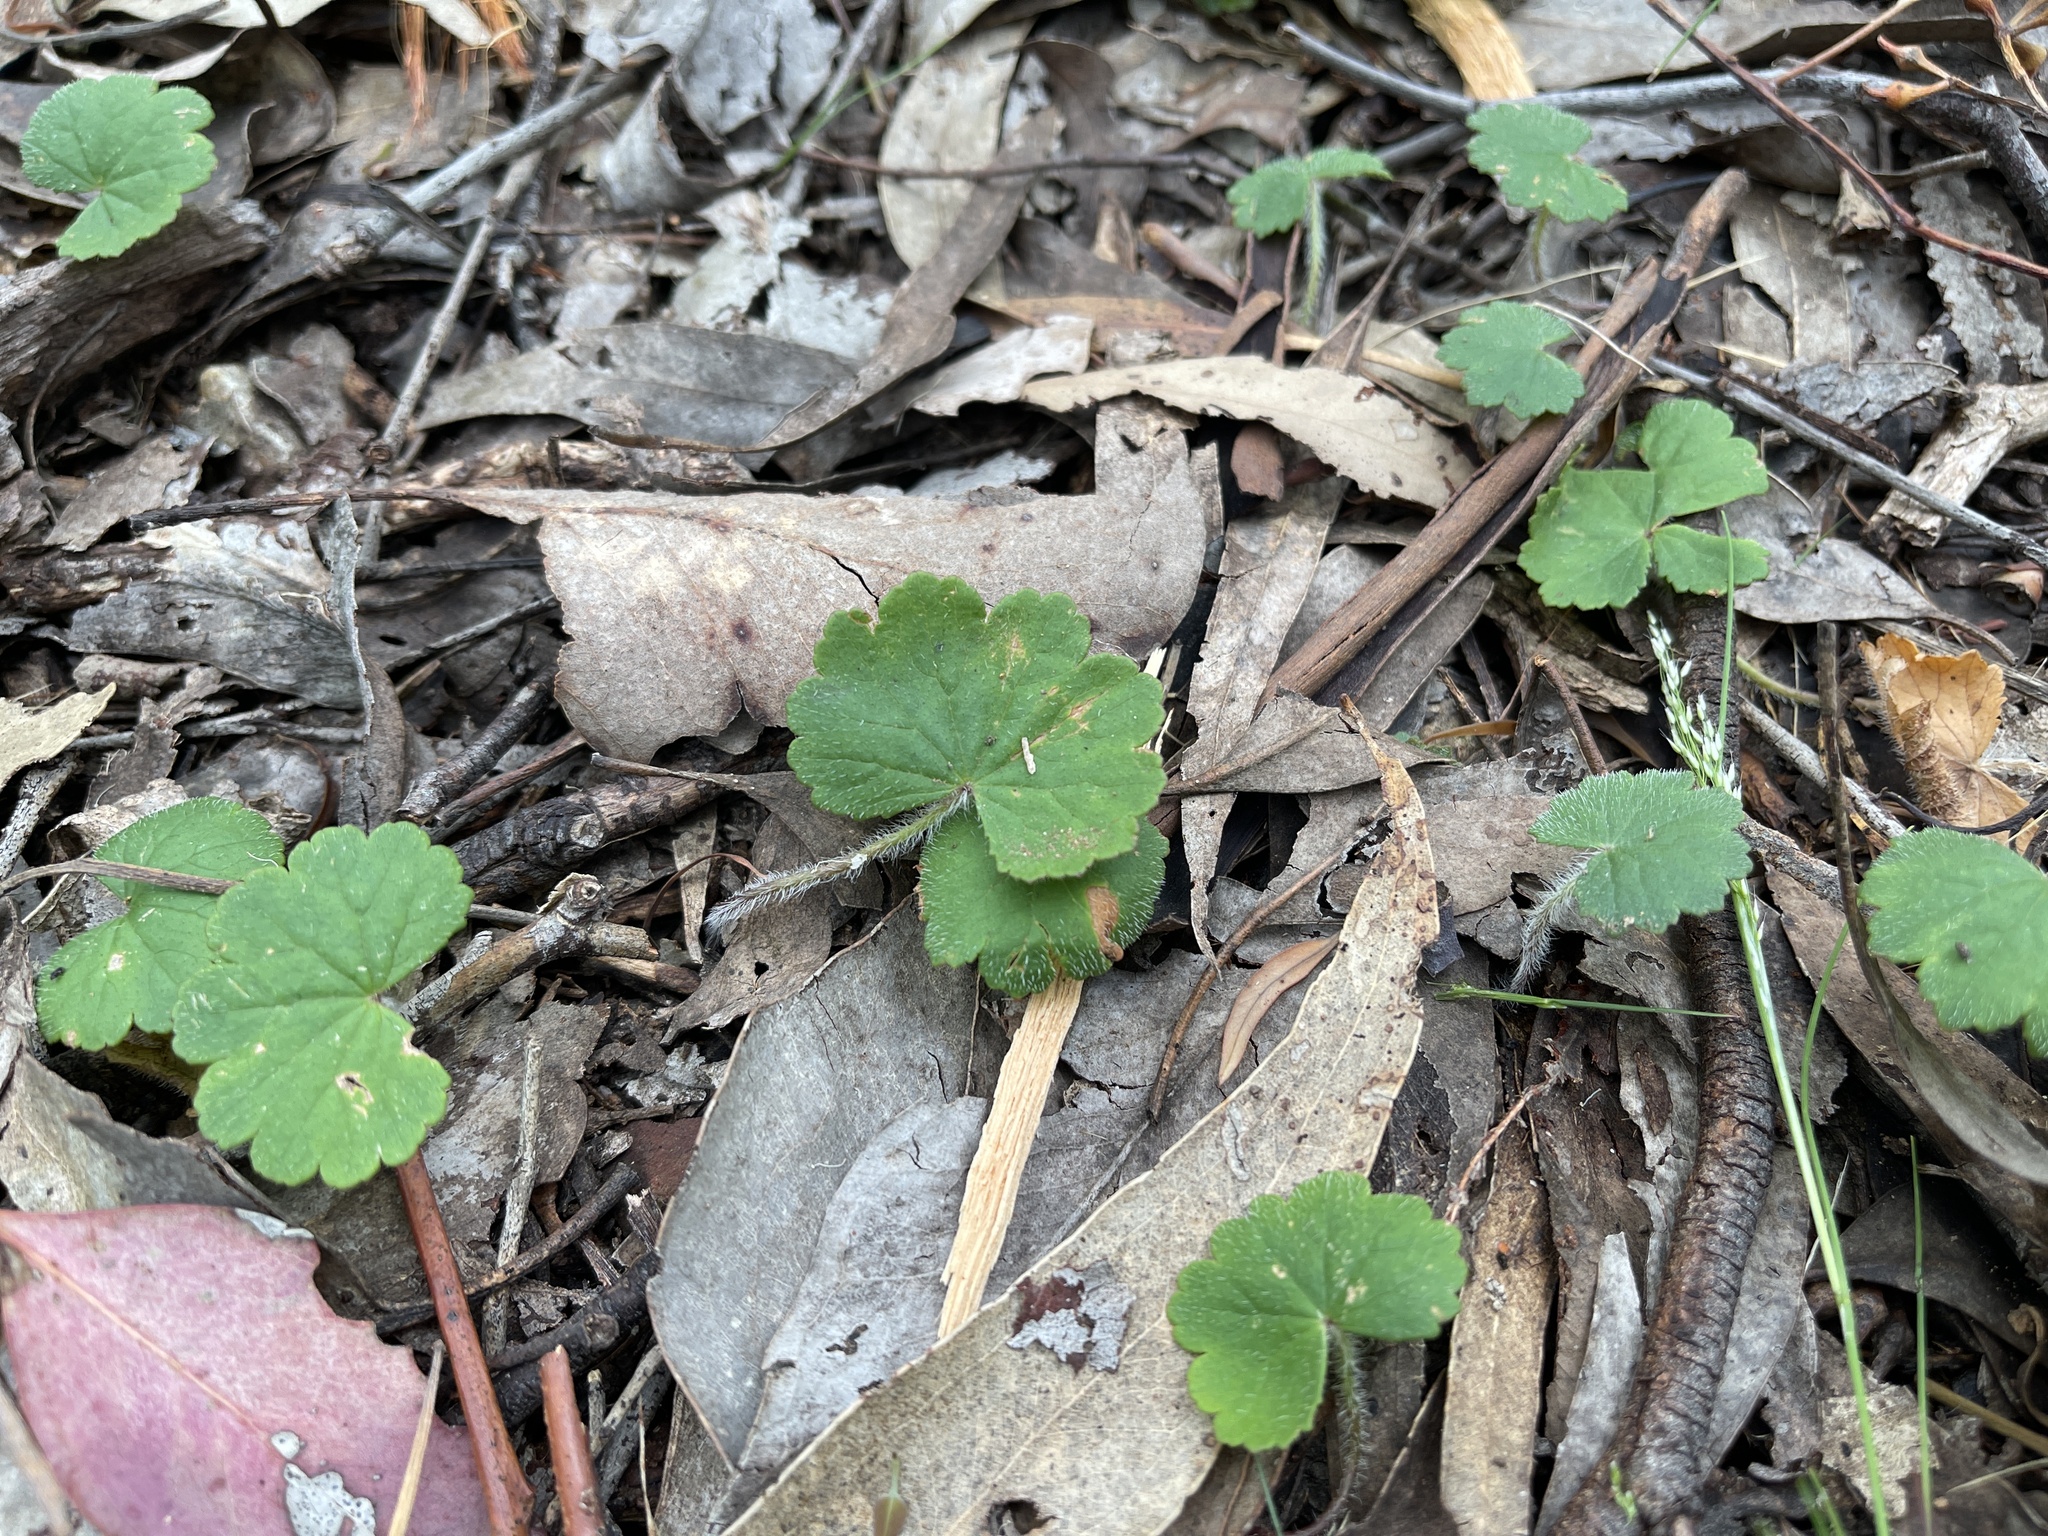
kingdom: Plantae
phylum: Tracheophyta
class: Magnoliopsida
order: Apiales
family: Araliaceae
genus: Hydrocotyle
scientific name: Hydrocotyle laxiflora
